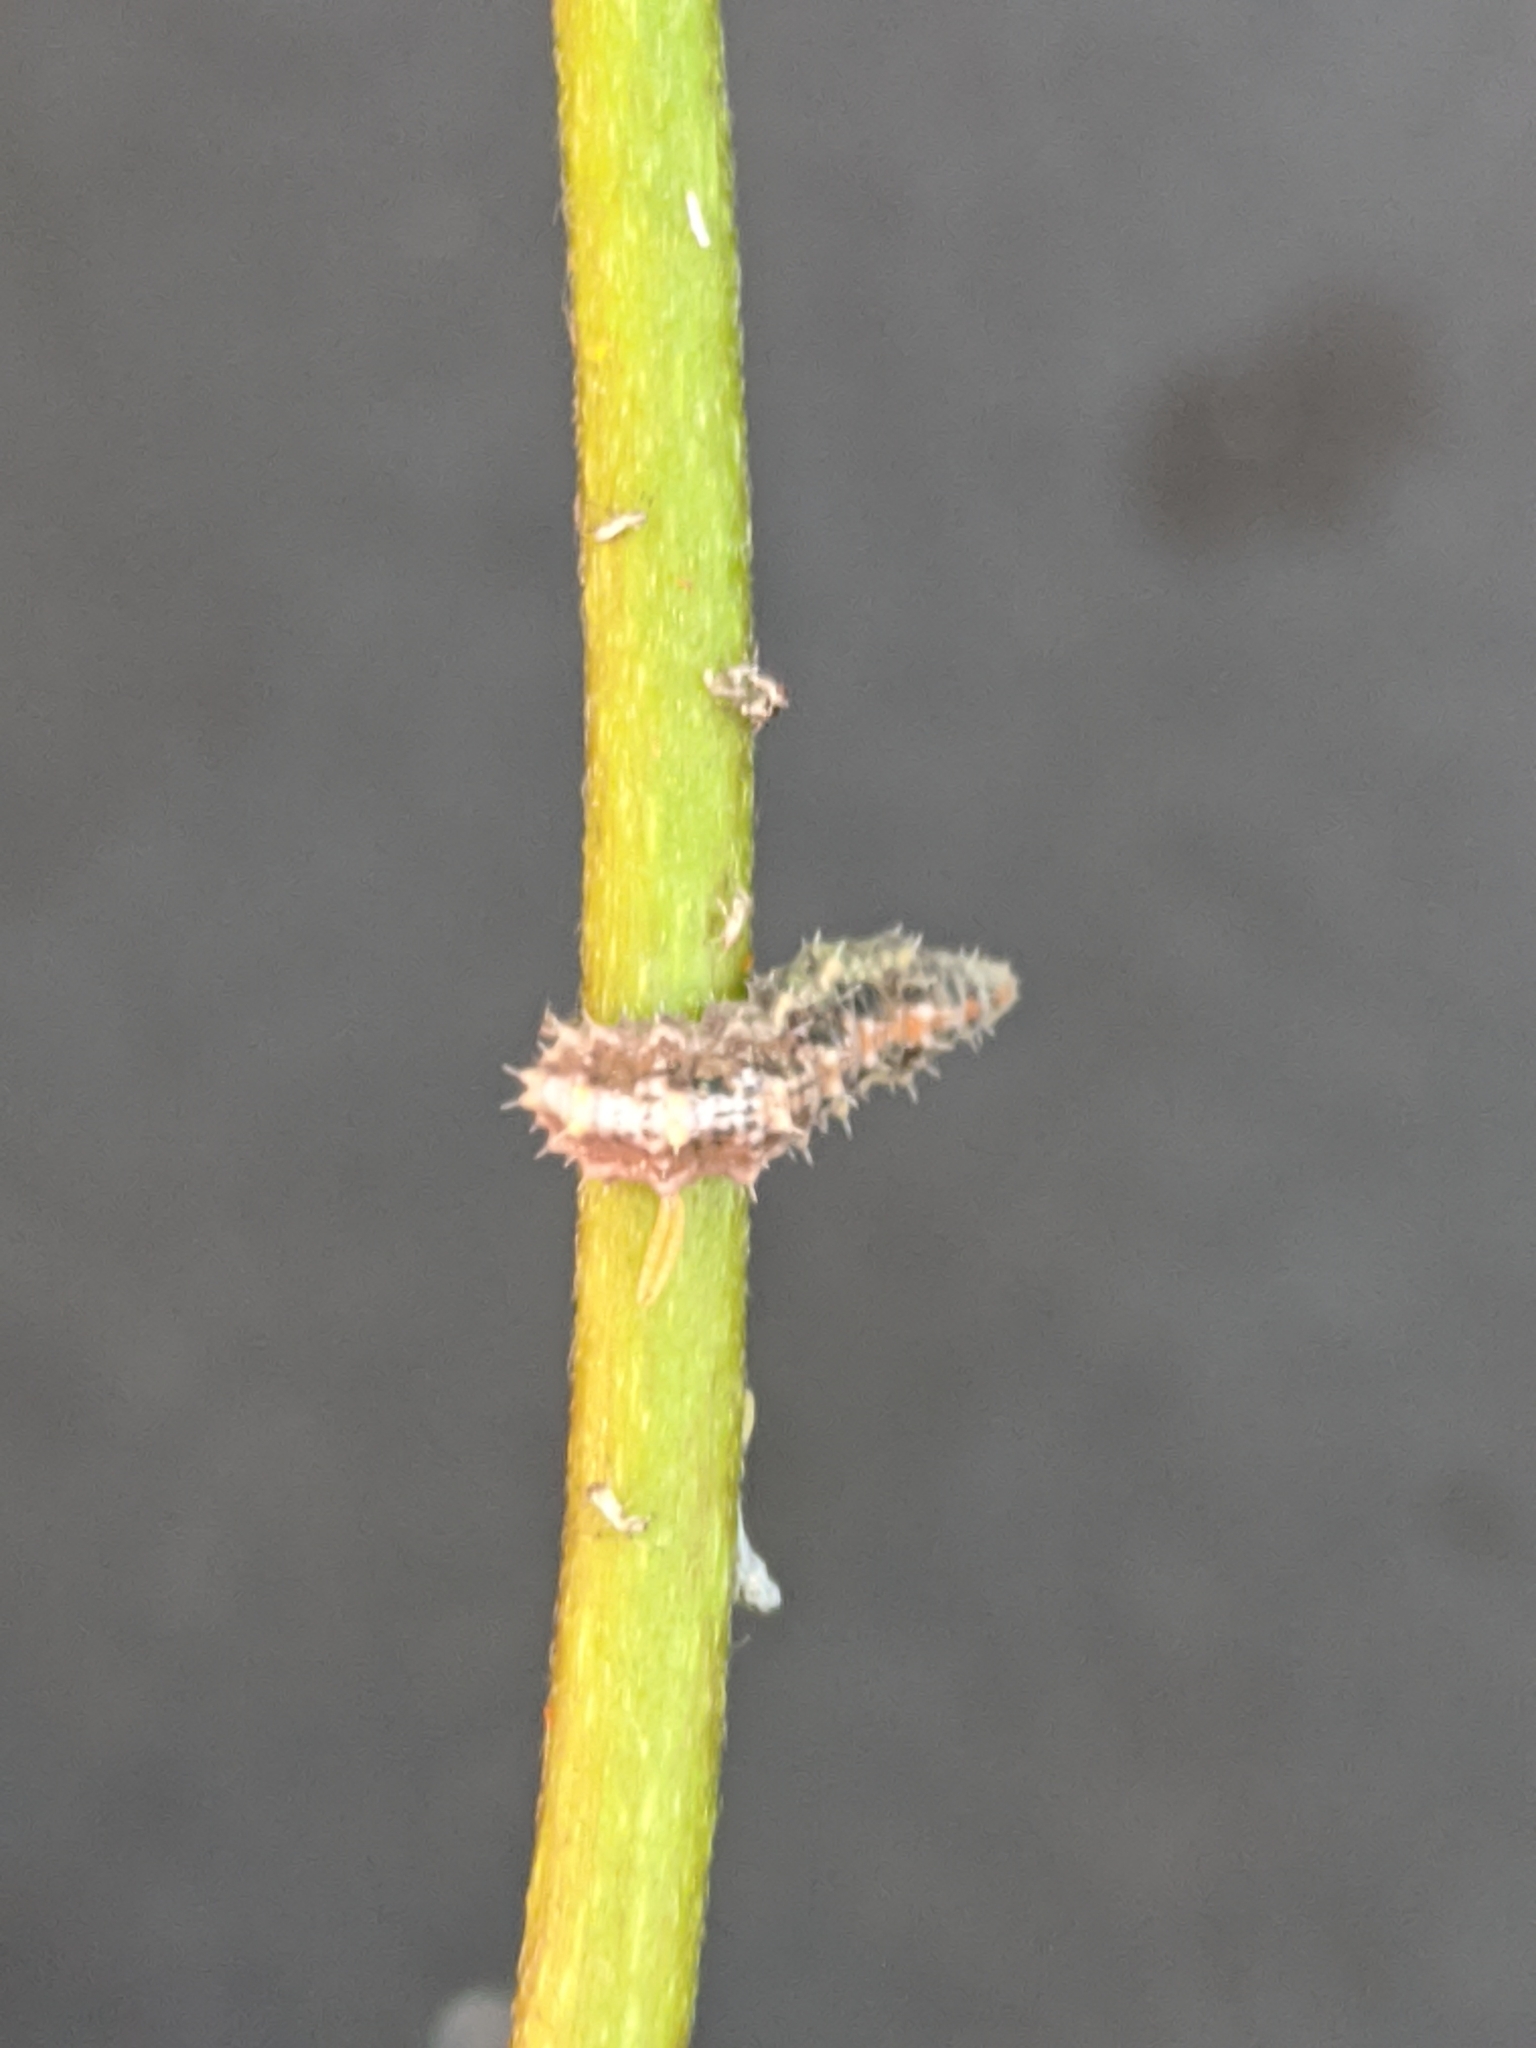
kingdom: Animalia
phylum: Arthropoda
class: Insecta
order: Diptera
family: Syrphidae
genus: Dioprosopa
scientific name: Dioprosopa clavatus
